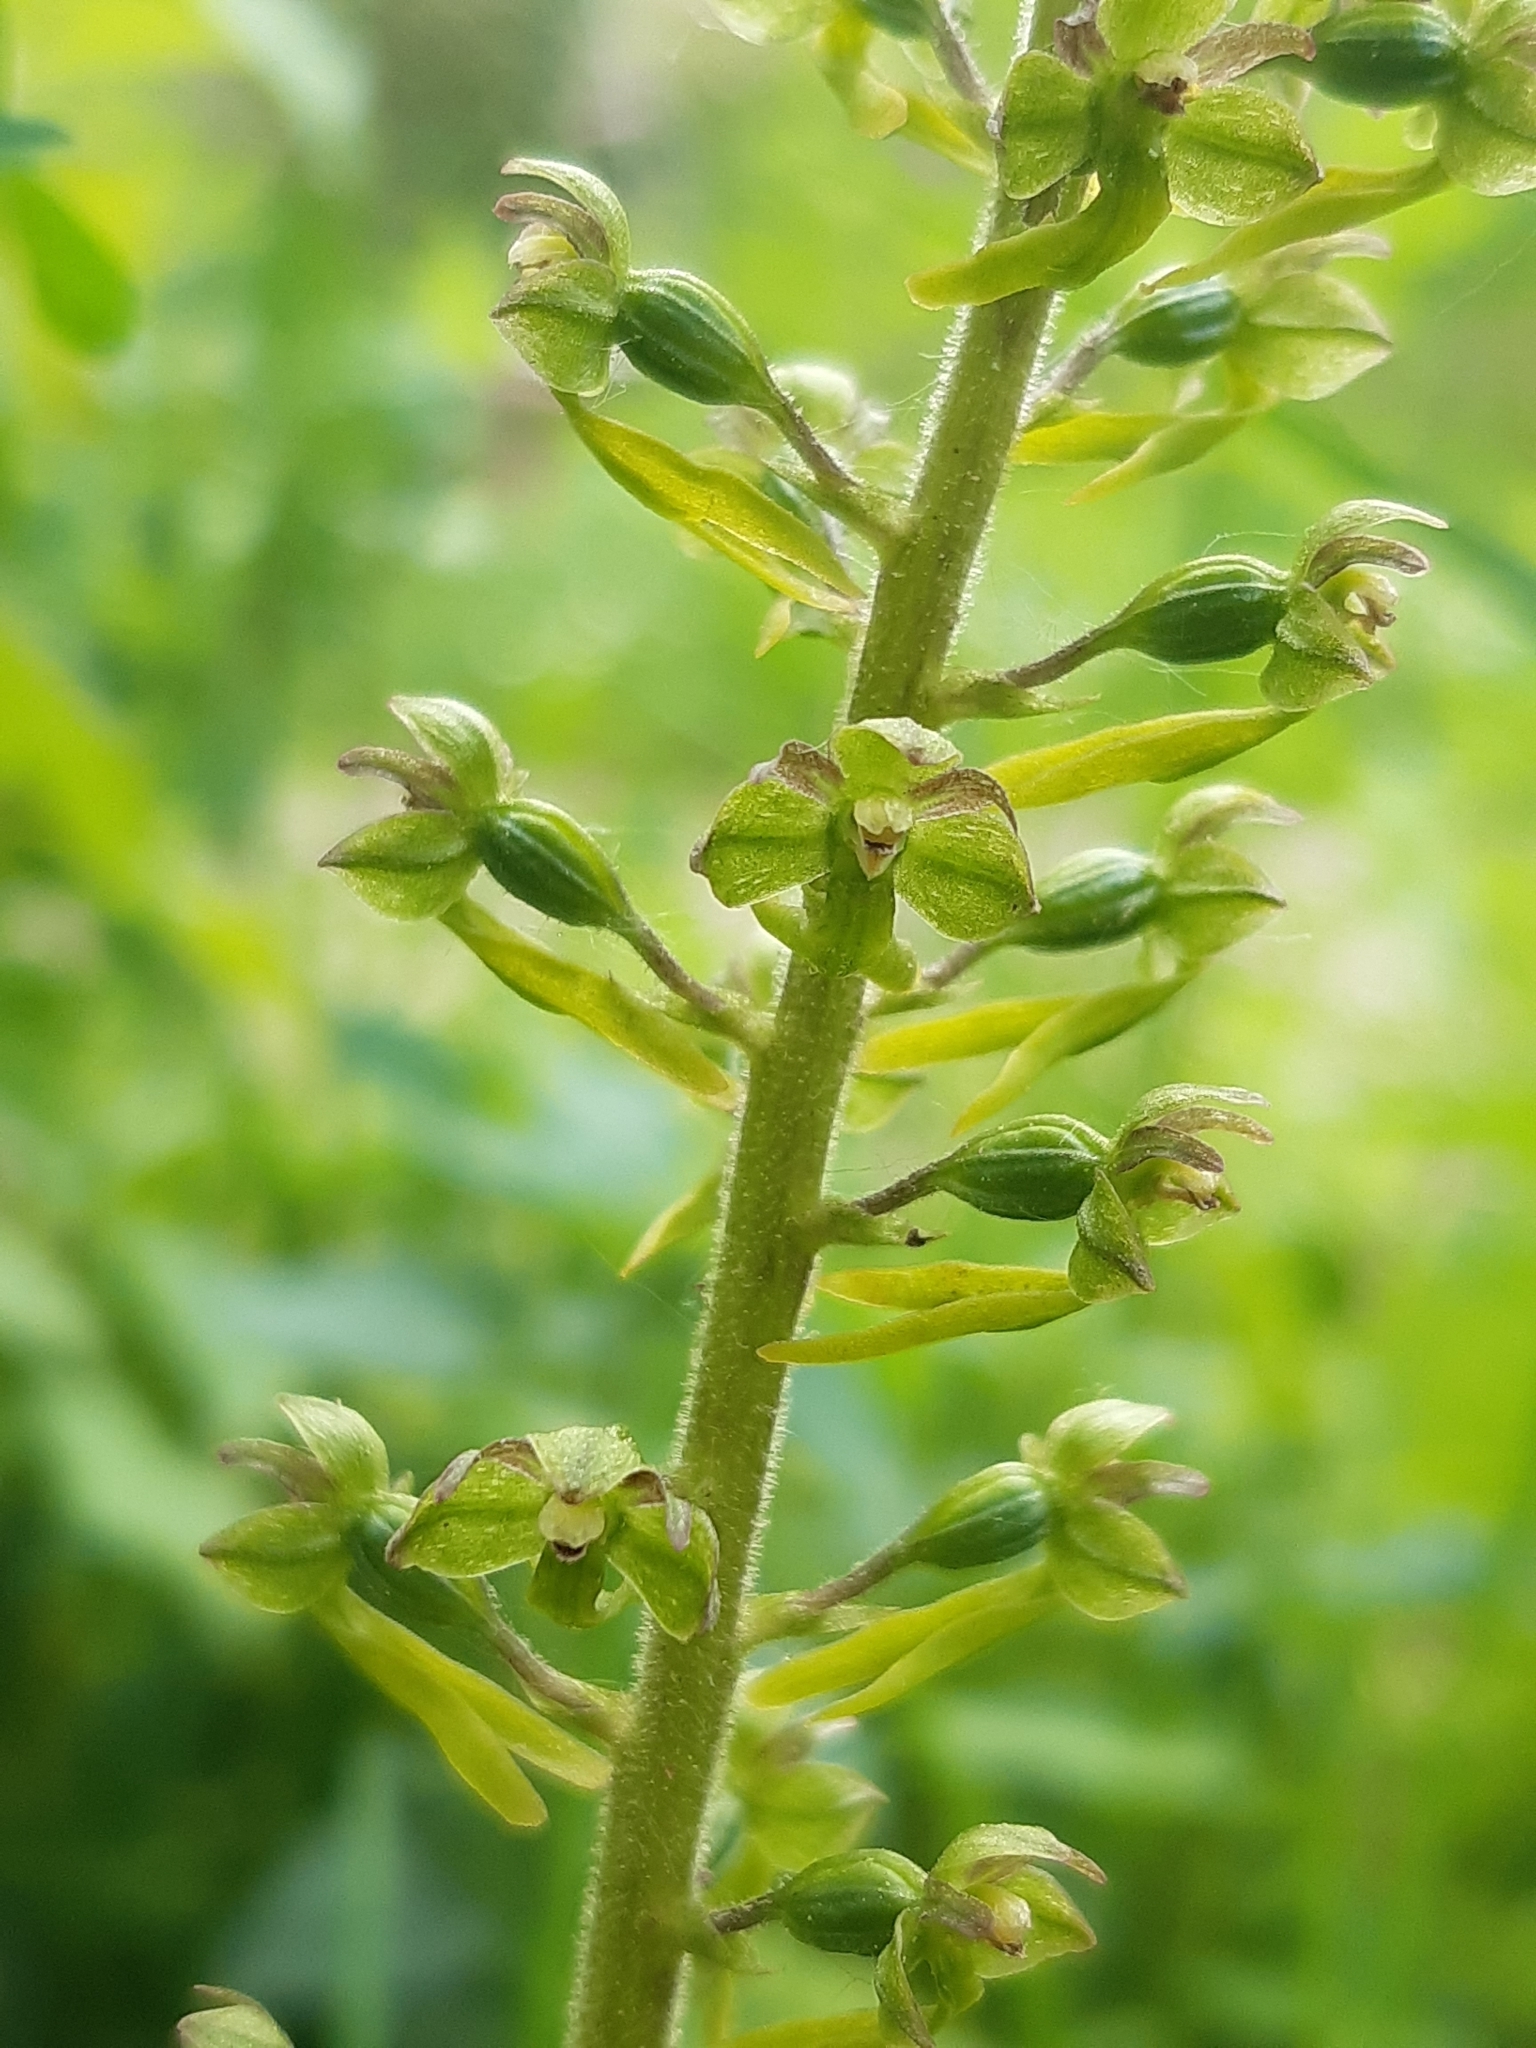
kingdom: Plantae
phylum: Tracheophyta
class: Liliopsida
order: Asparagales
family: Orchidaceae
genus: Neottia
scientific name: Neottia ovata
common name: Common twayblade
